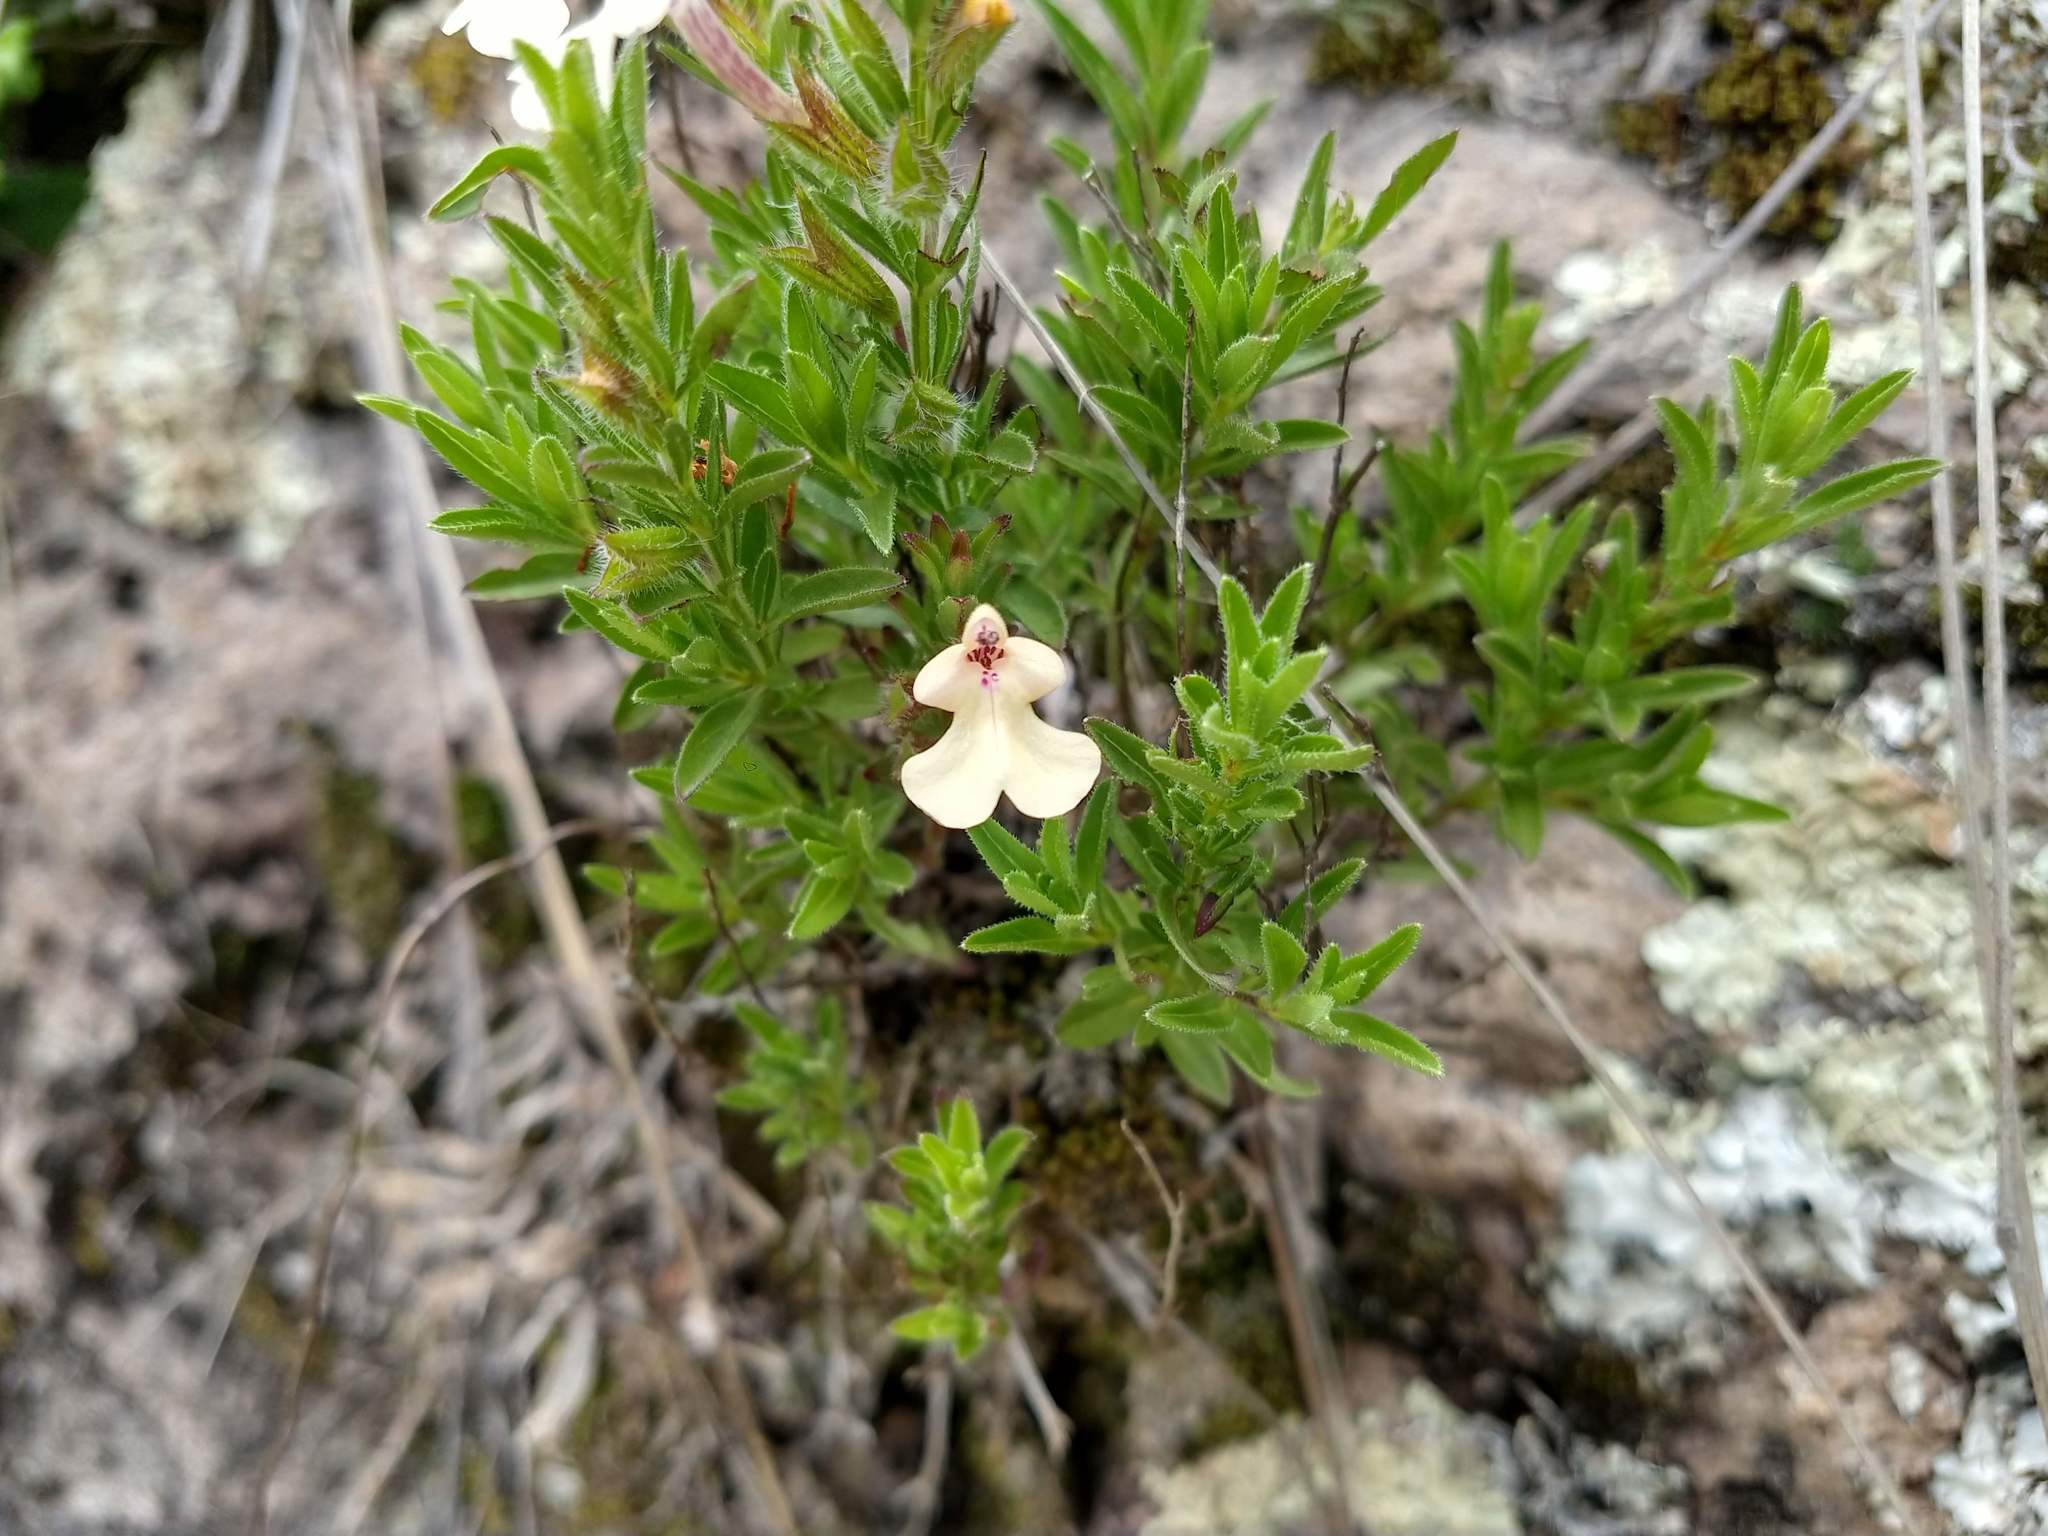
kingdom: Plantae
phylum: Tracheophyta
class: Magnoliopsida
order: Lamiales
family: Lamiaceae
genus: Salvia
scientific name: Salvia axillaris
